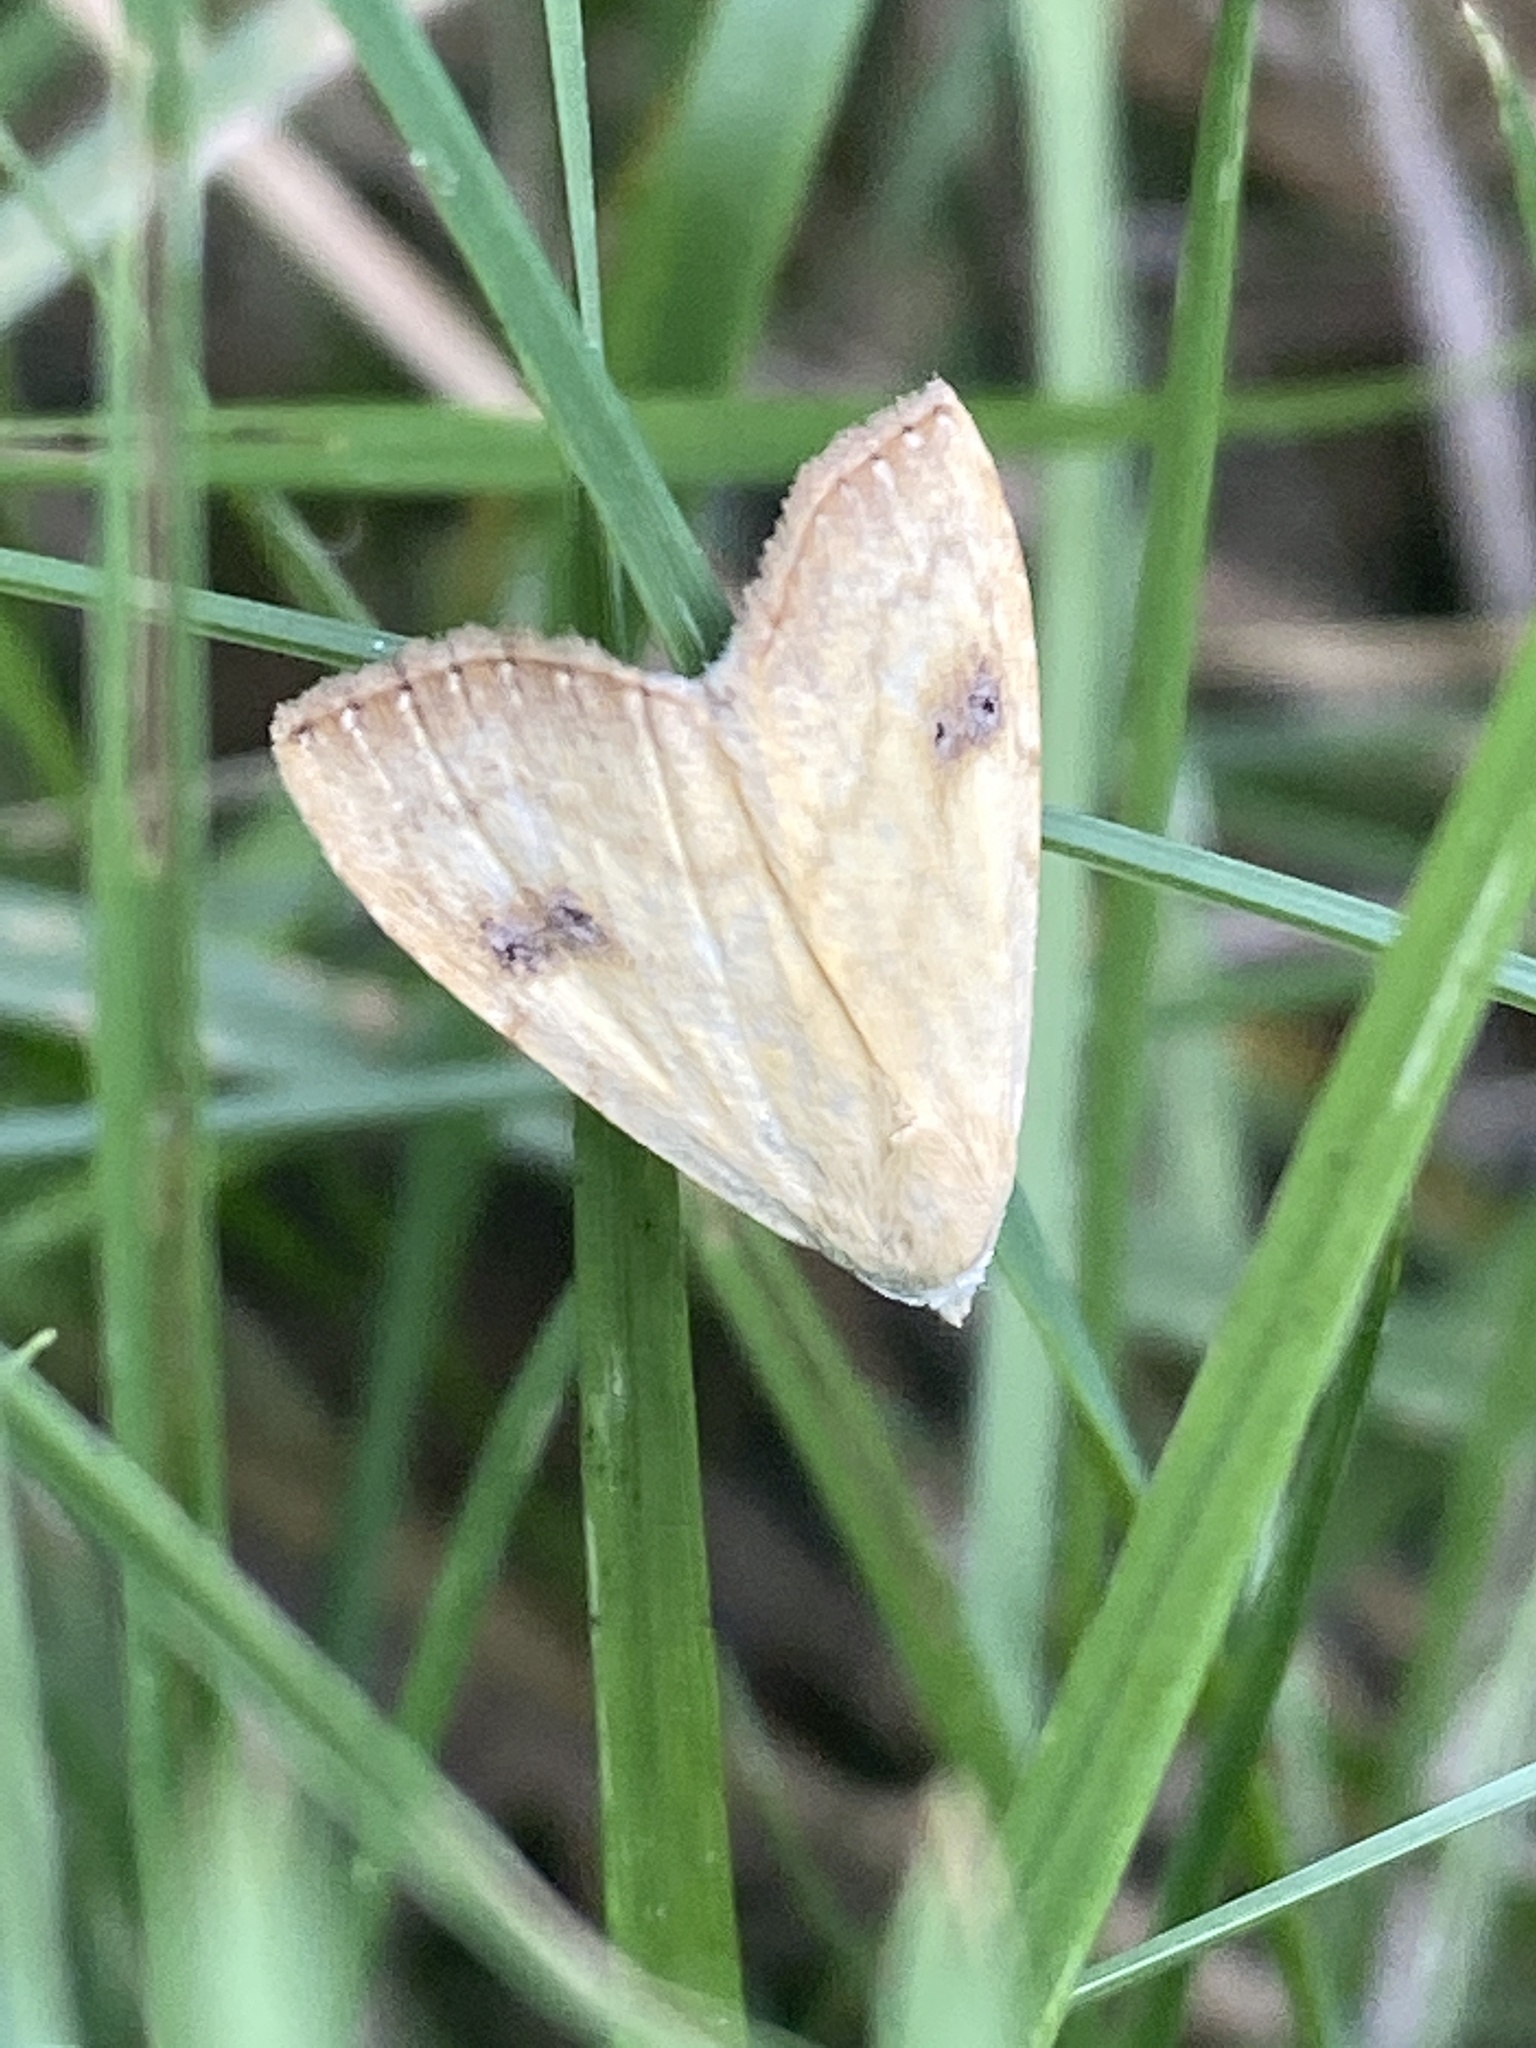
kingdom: Animalia
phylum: Arthropoda
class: Insecta
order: Lepidoptera
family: Erebidae
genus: Rivula
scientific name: Rivula sericealis
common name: Straw dot
